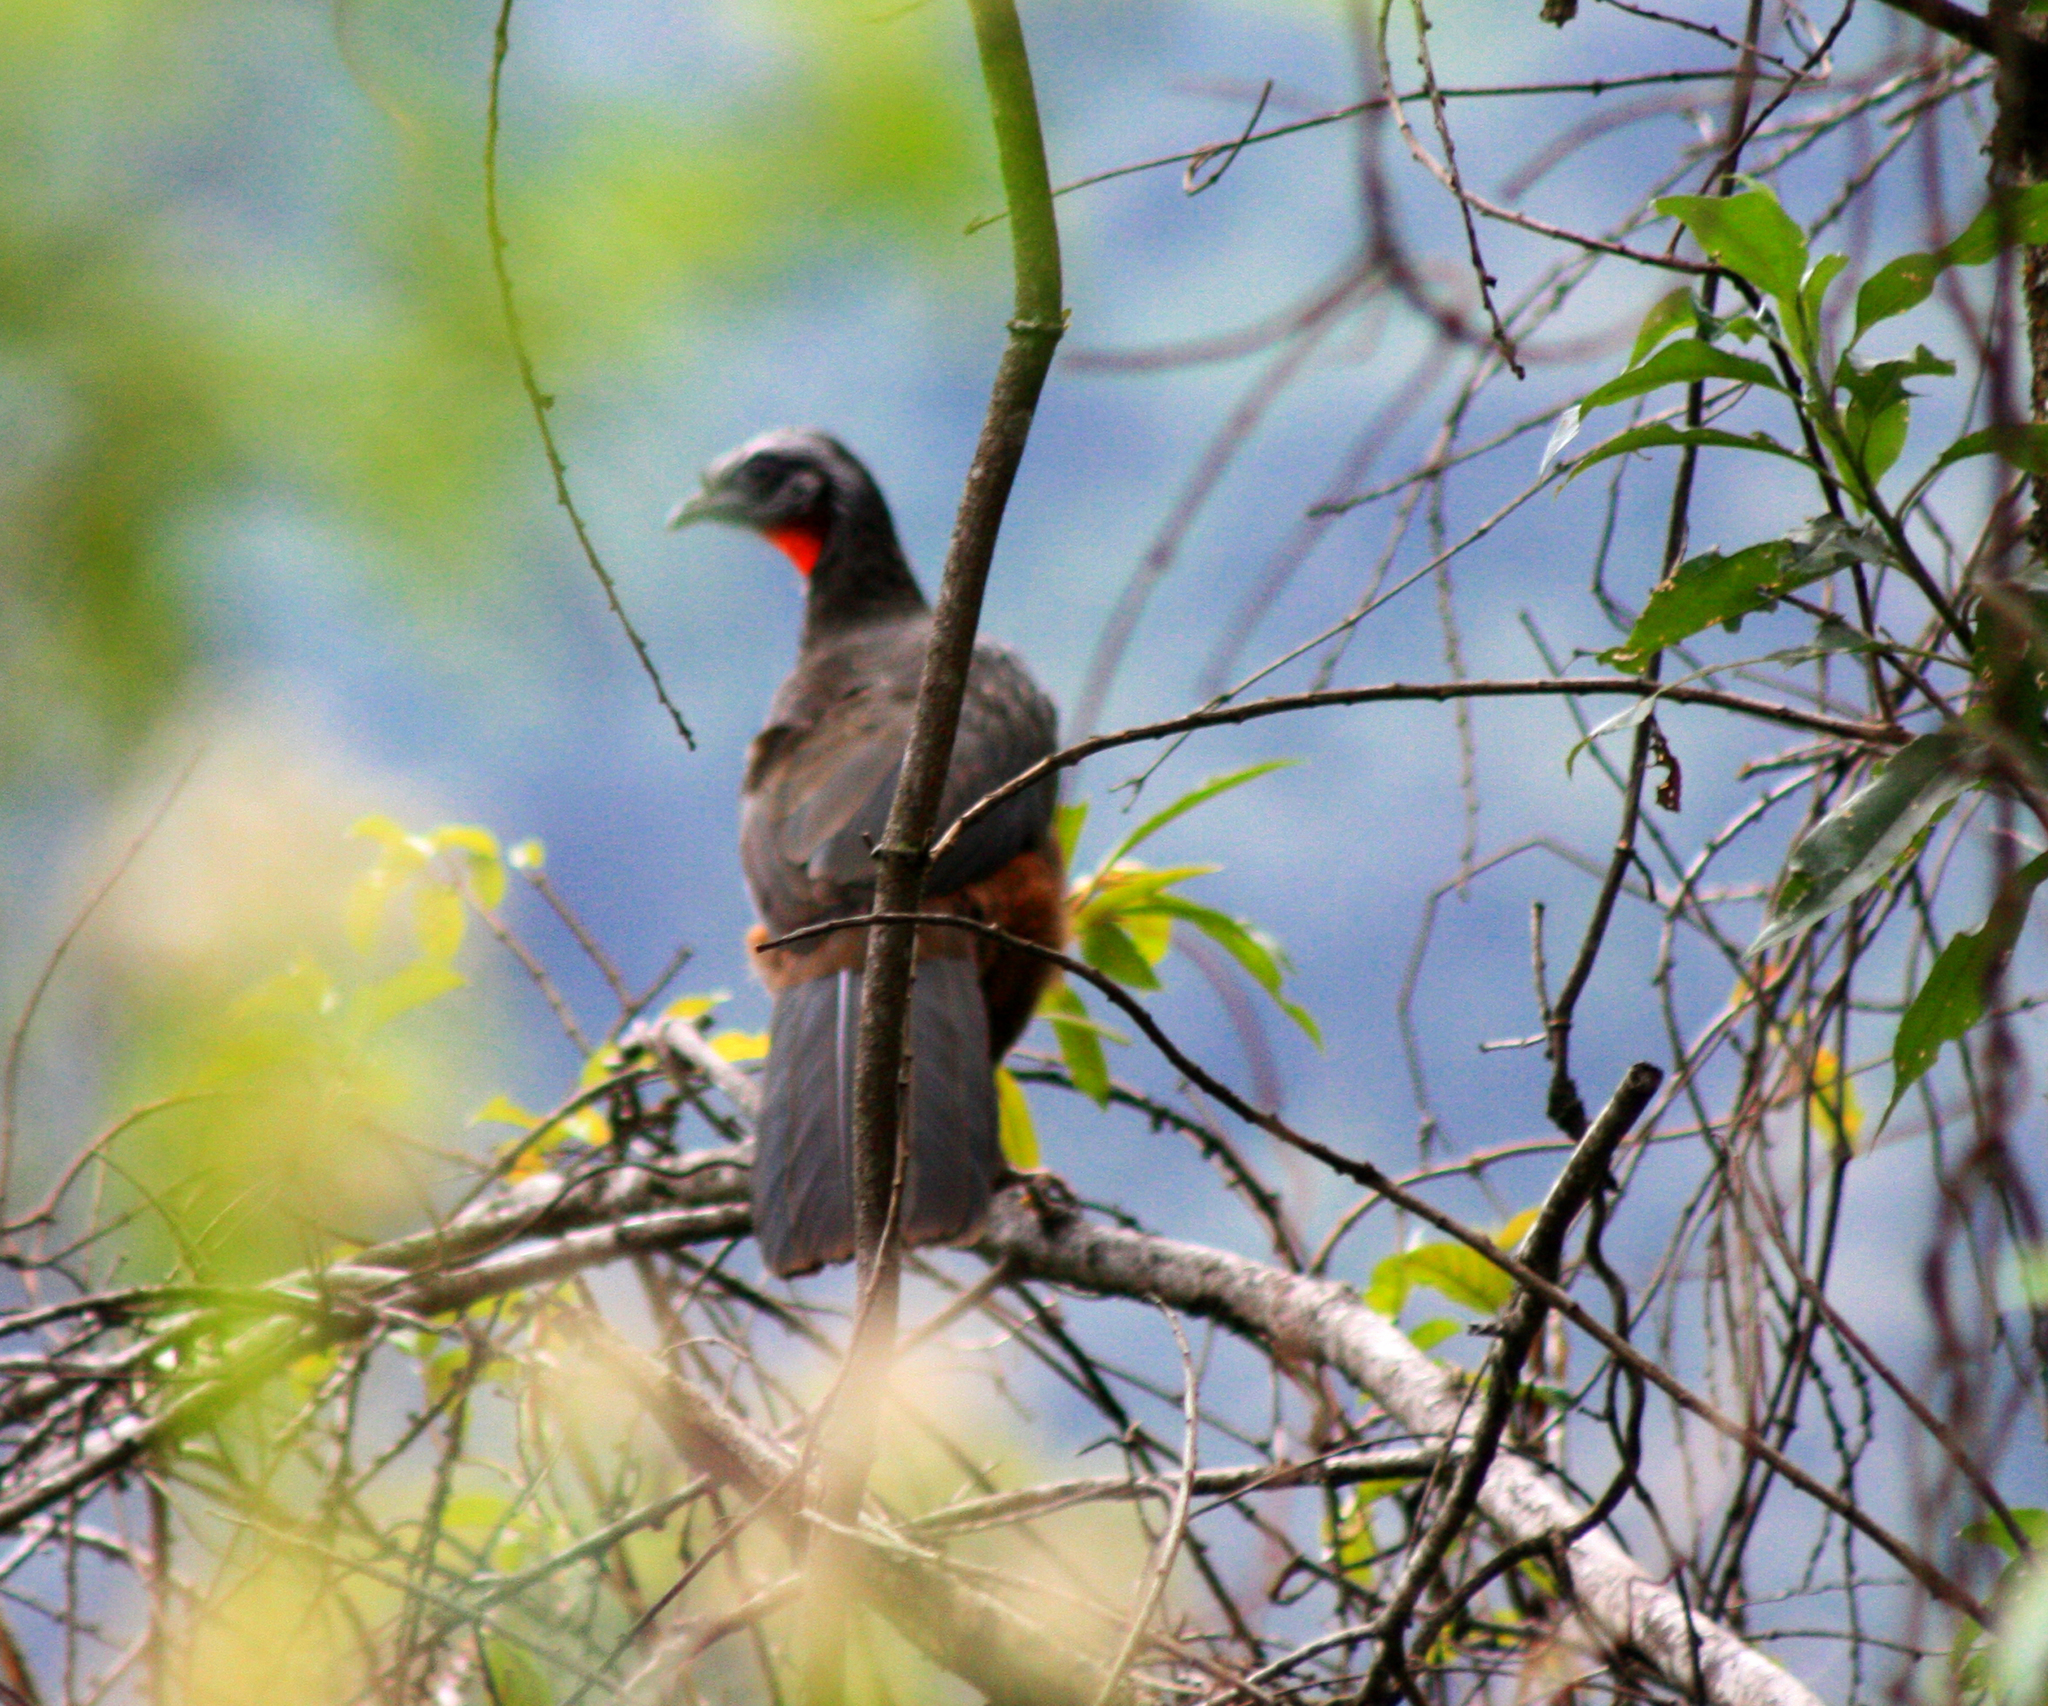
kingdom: Animalia
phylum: Chordata
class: Aves
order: Galliformes
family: Cracidae
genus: Penelope
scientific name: Penelope dabbenei
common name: Red-faced guan
